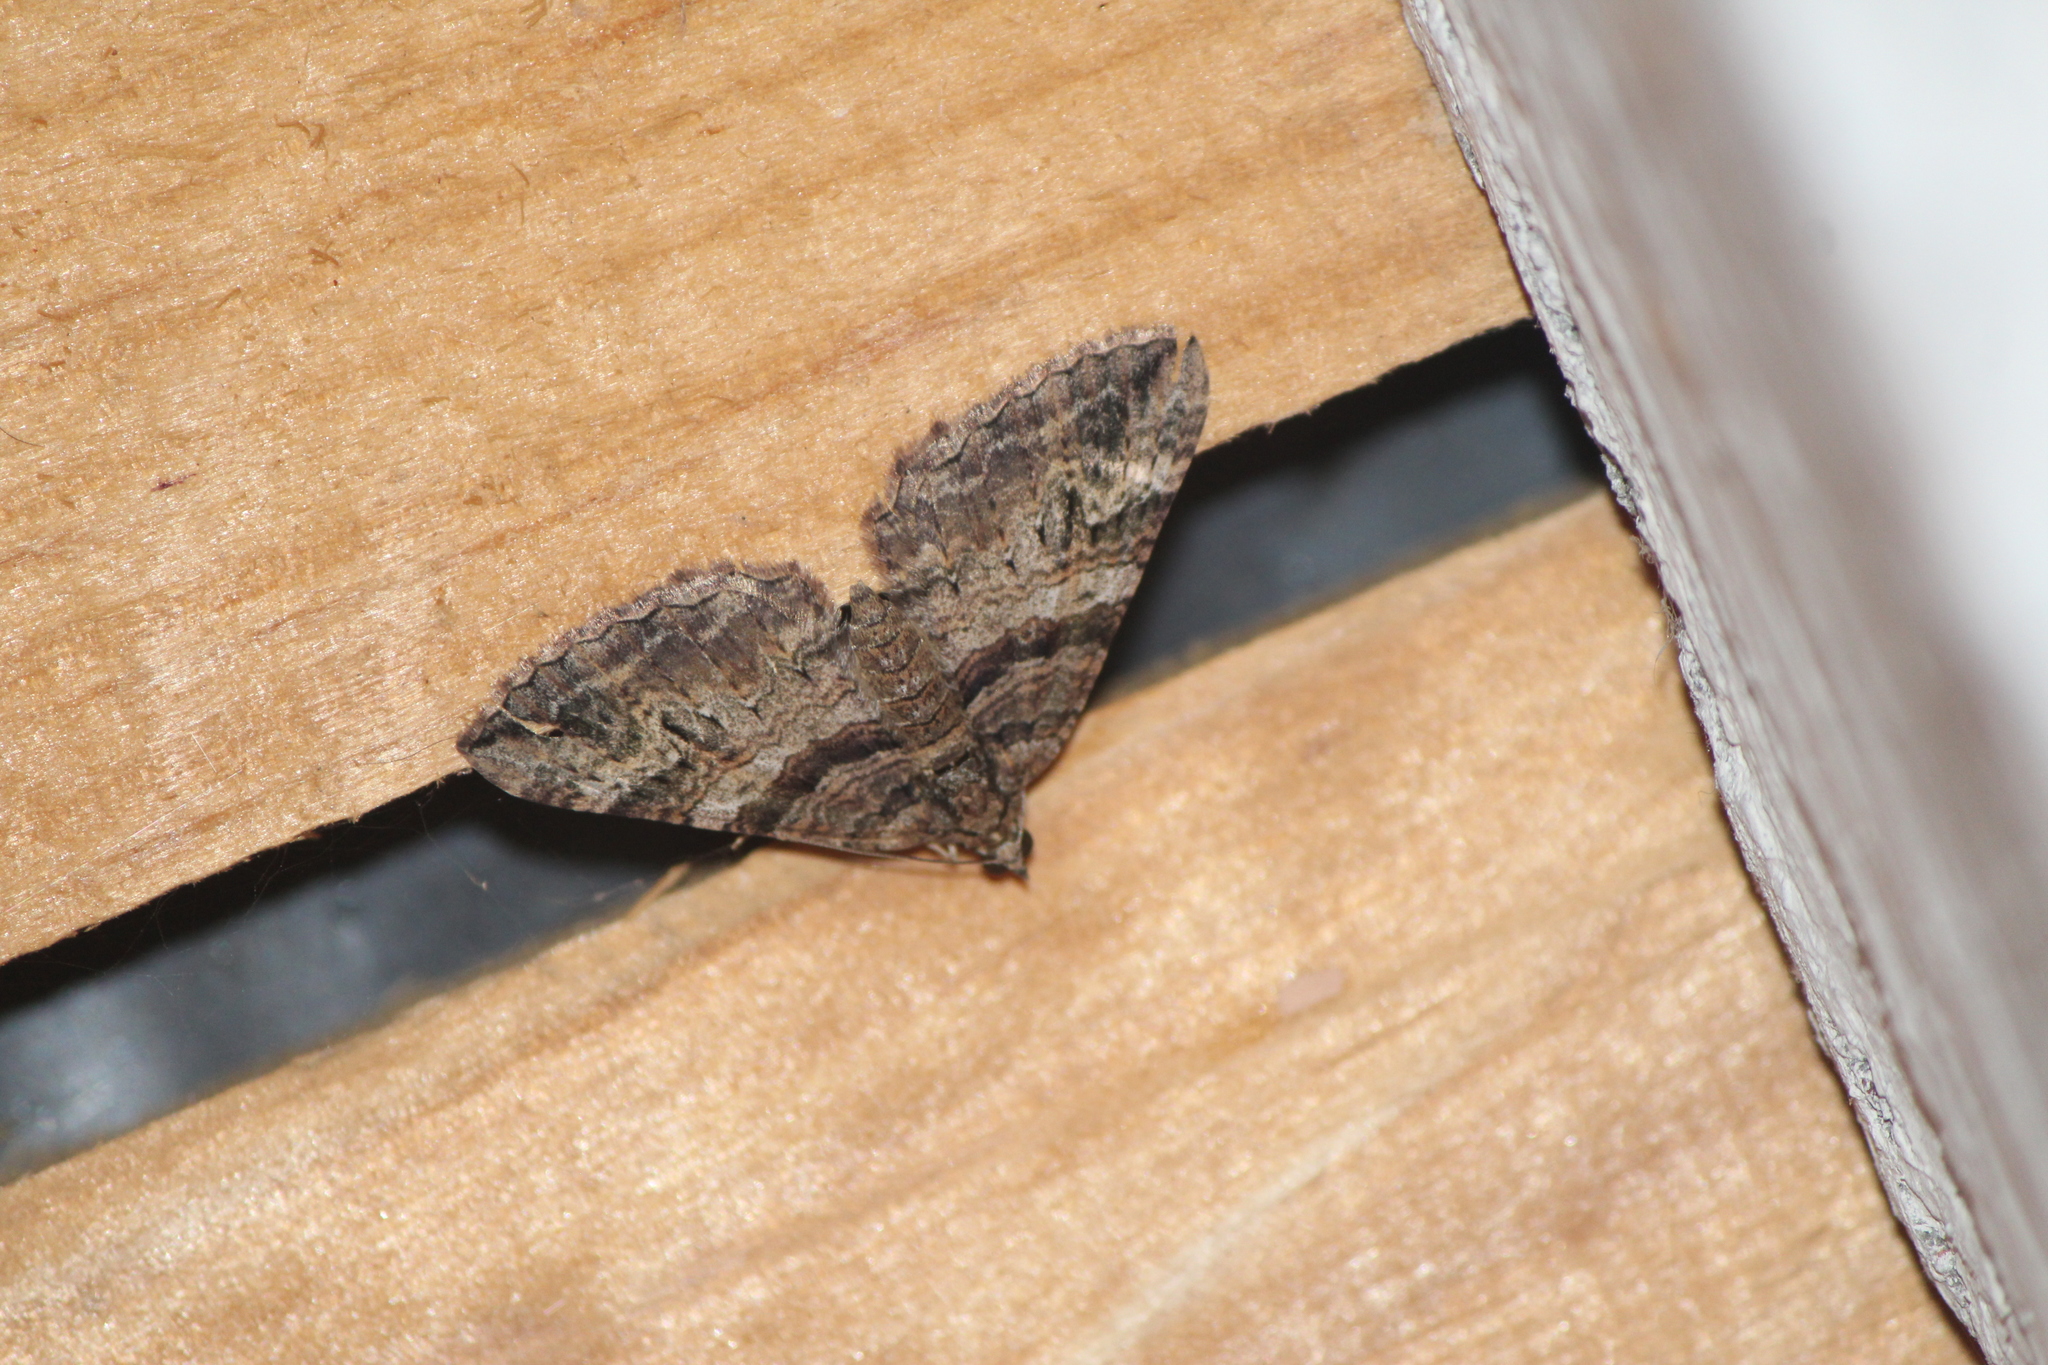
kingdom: Animalia
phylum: Arthropoda
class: Insecta
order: Lepidoptera
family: Geometridae
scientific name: Geometridae
